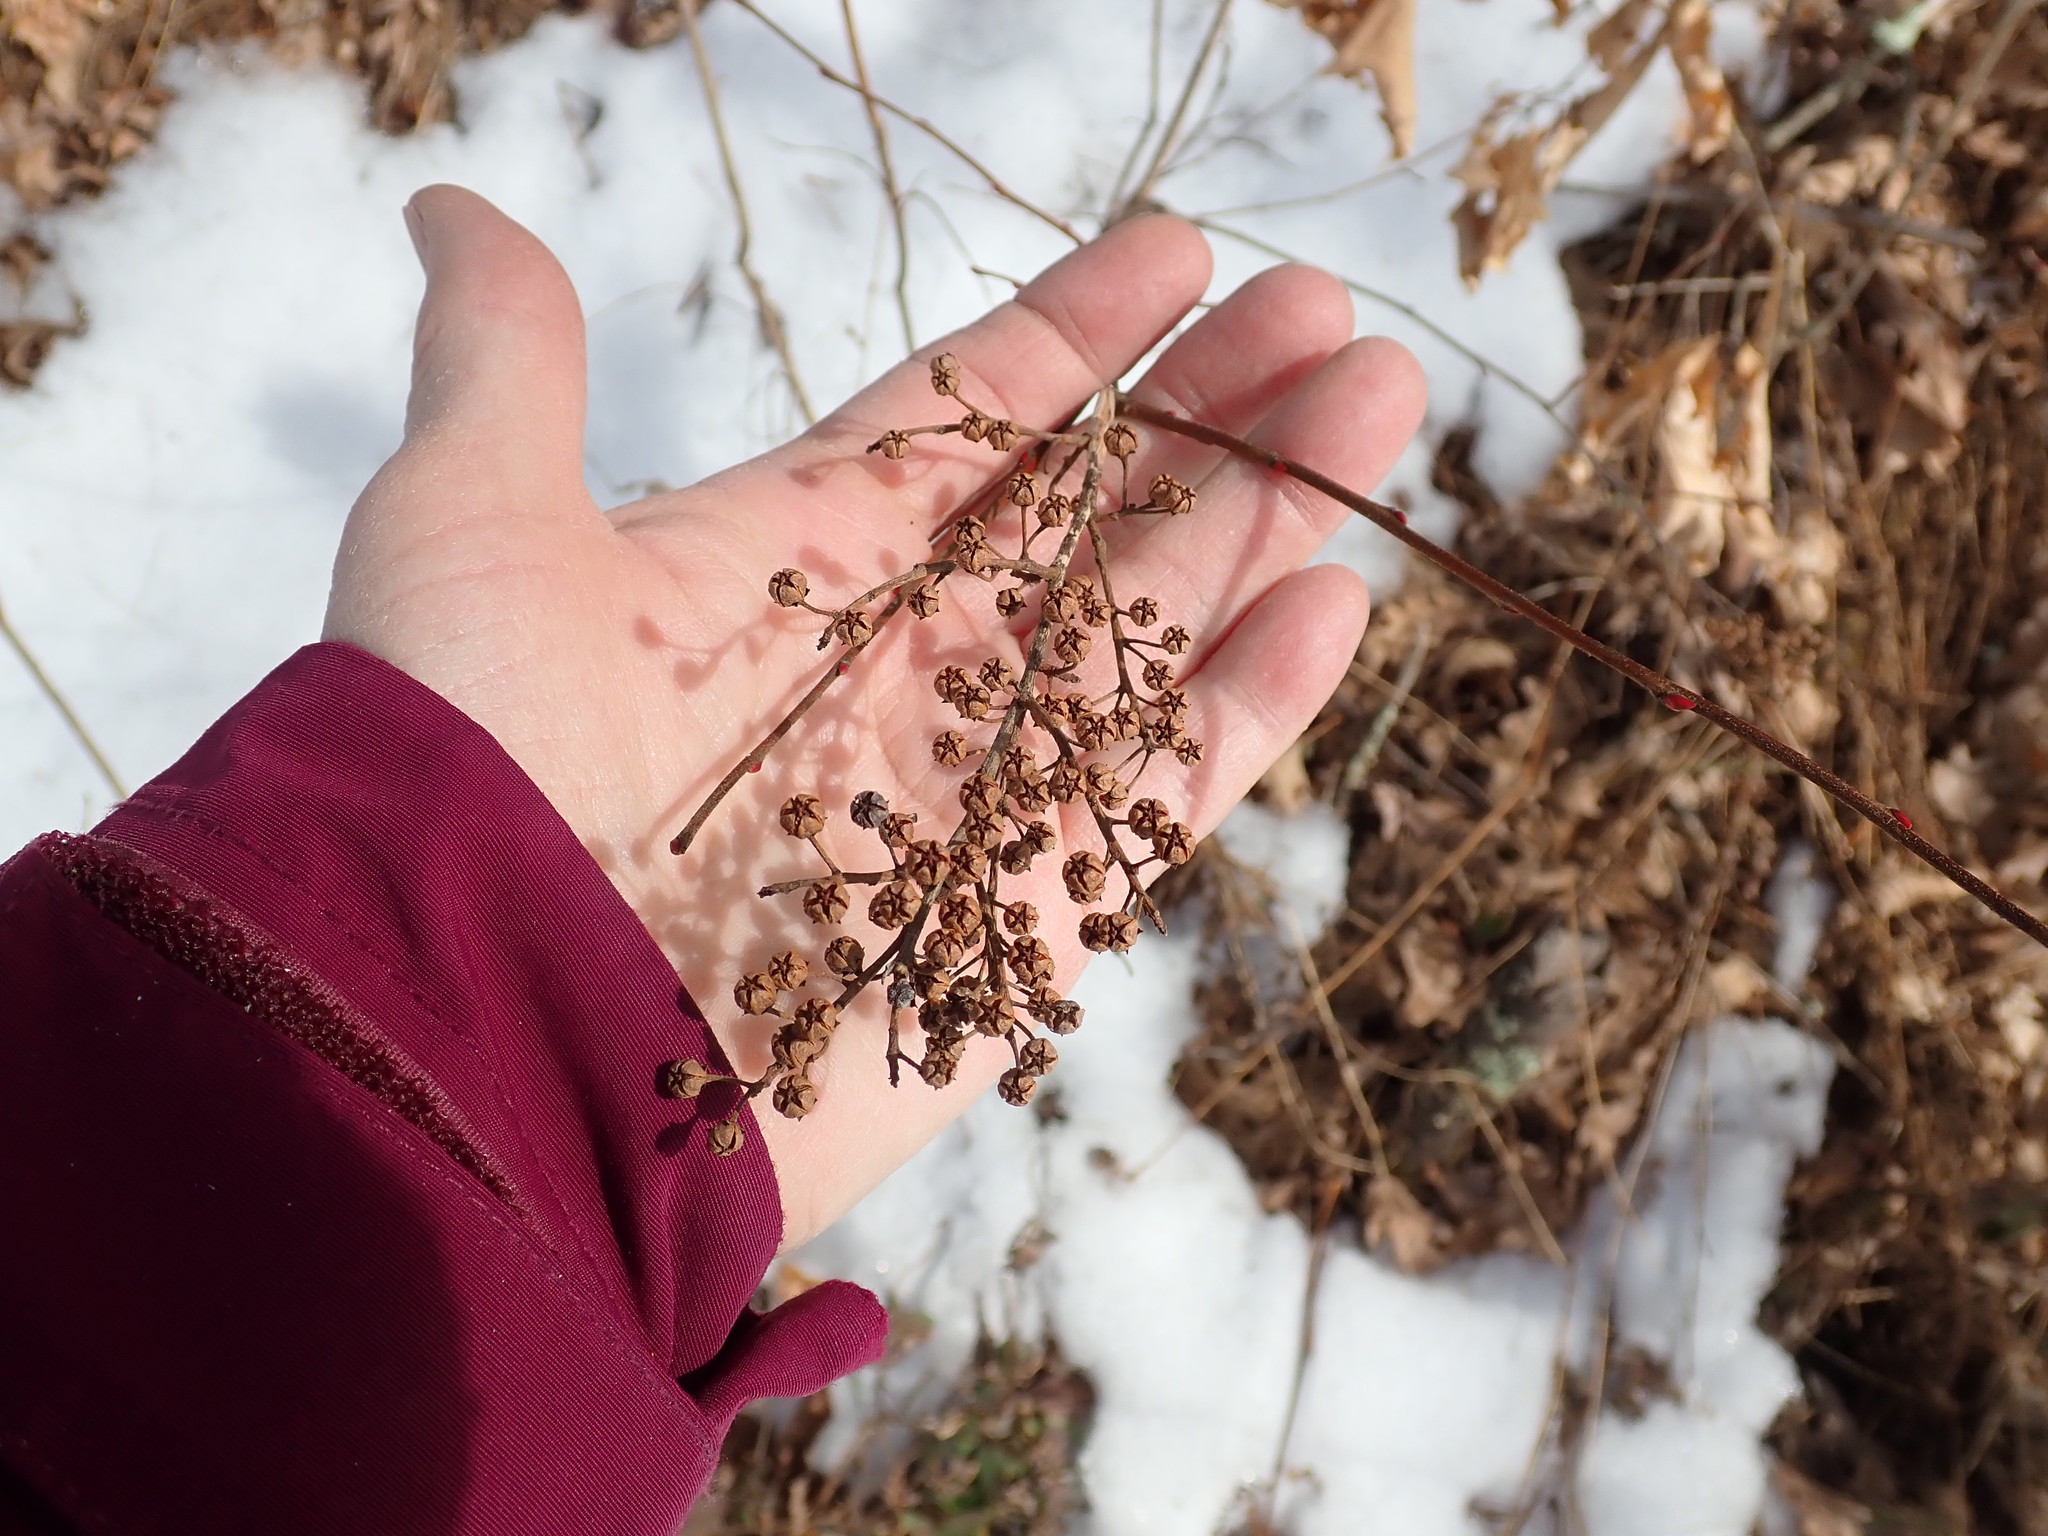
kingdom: Plantae
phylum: Tracheophyta
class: Magnoliopsida
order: Ericales
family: Ericaceae
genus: Lyonia
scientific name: Lyonia ligustrina
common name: Maleberry
